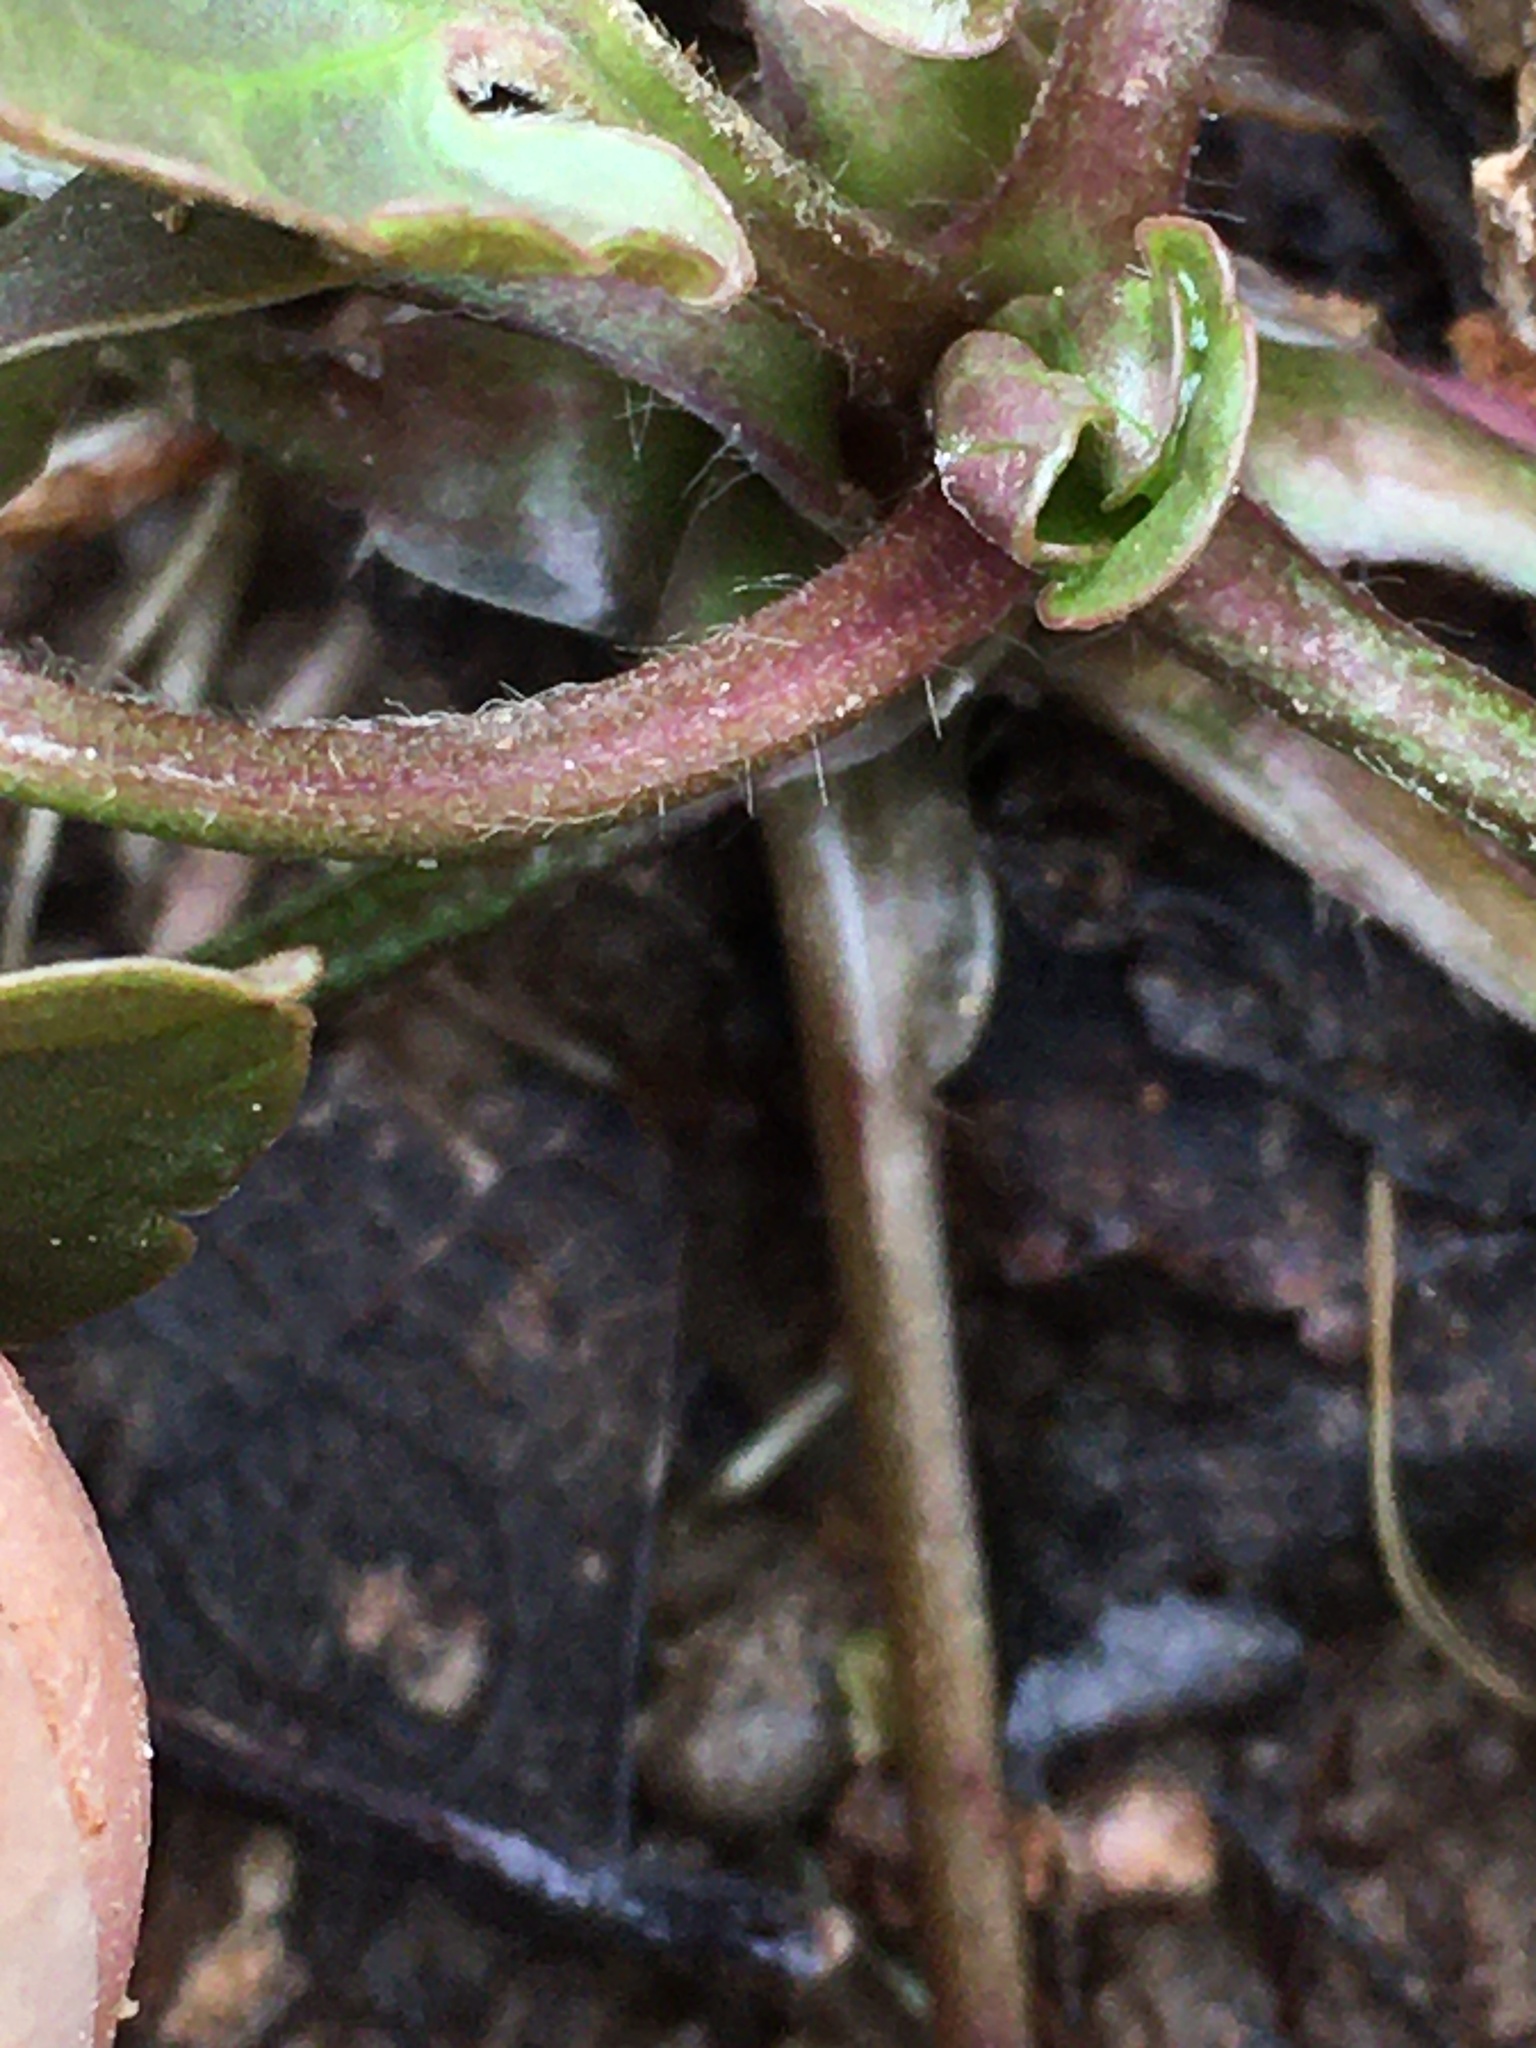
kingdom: Plantae
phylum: Tracheophyta
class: Magnoliopsida
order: Ranunculales
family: Ranunculaceae
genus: Ranunculus
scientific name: Ranunculus abortivus
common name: Early wood buttercup
